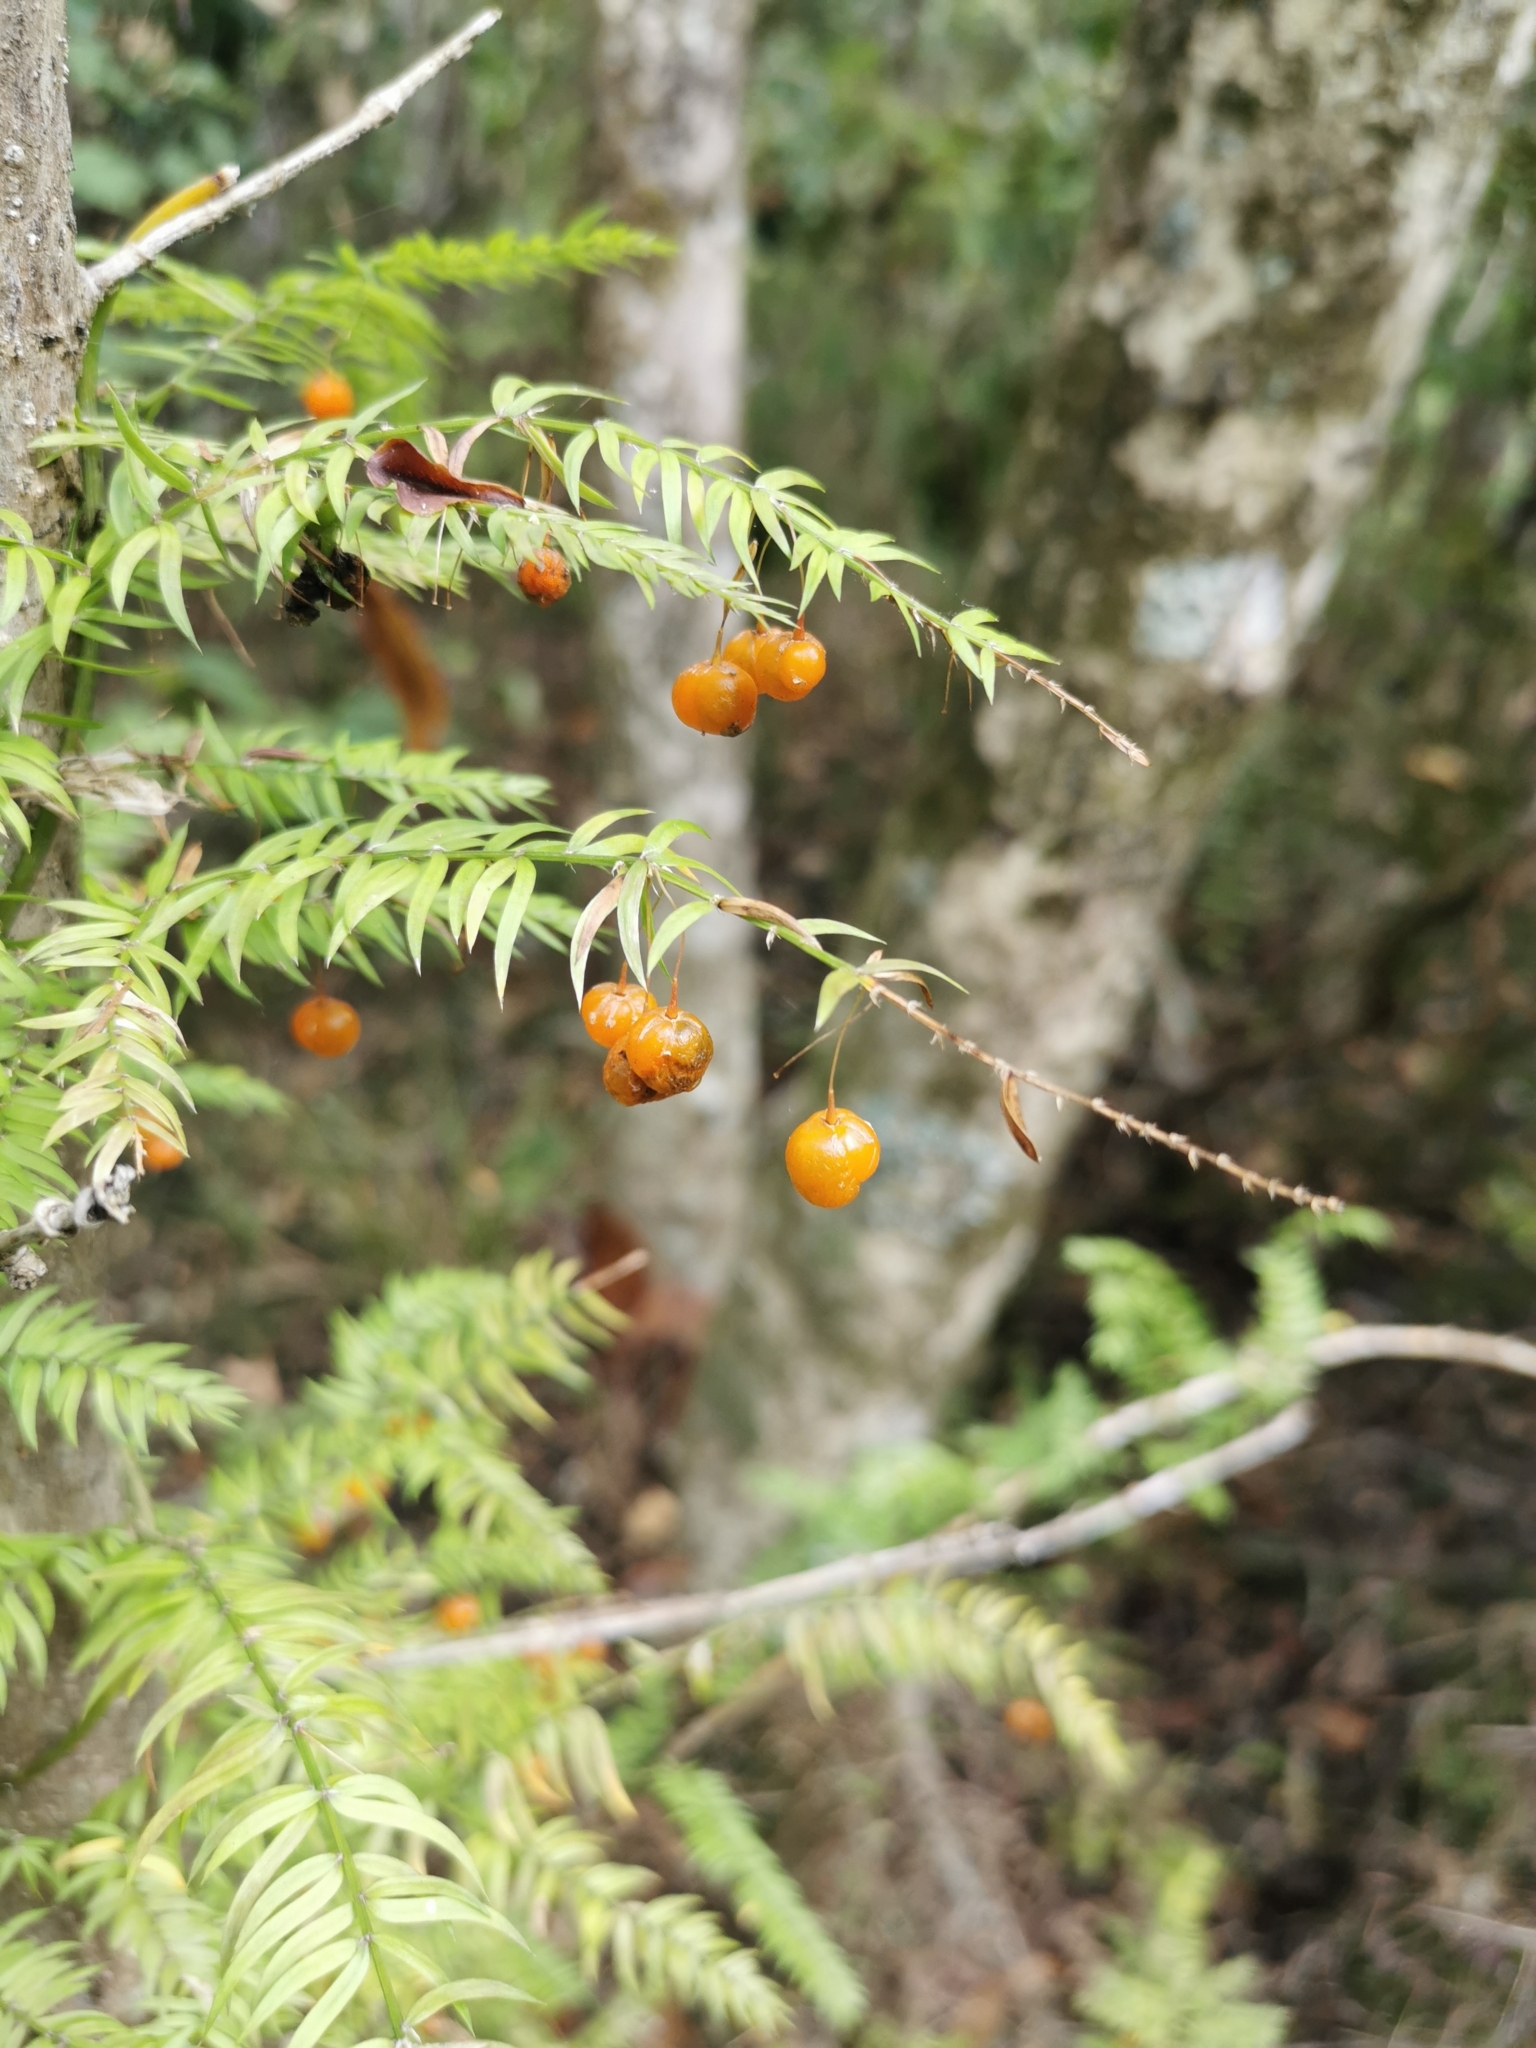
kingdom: Plantae
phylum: Tracheophyta
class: Liliopsida
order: Asparagales
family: Asparagaceae
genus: Asparagus
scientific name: Asparagus scandens
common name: Asparagus-fern
